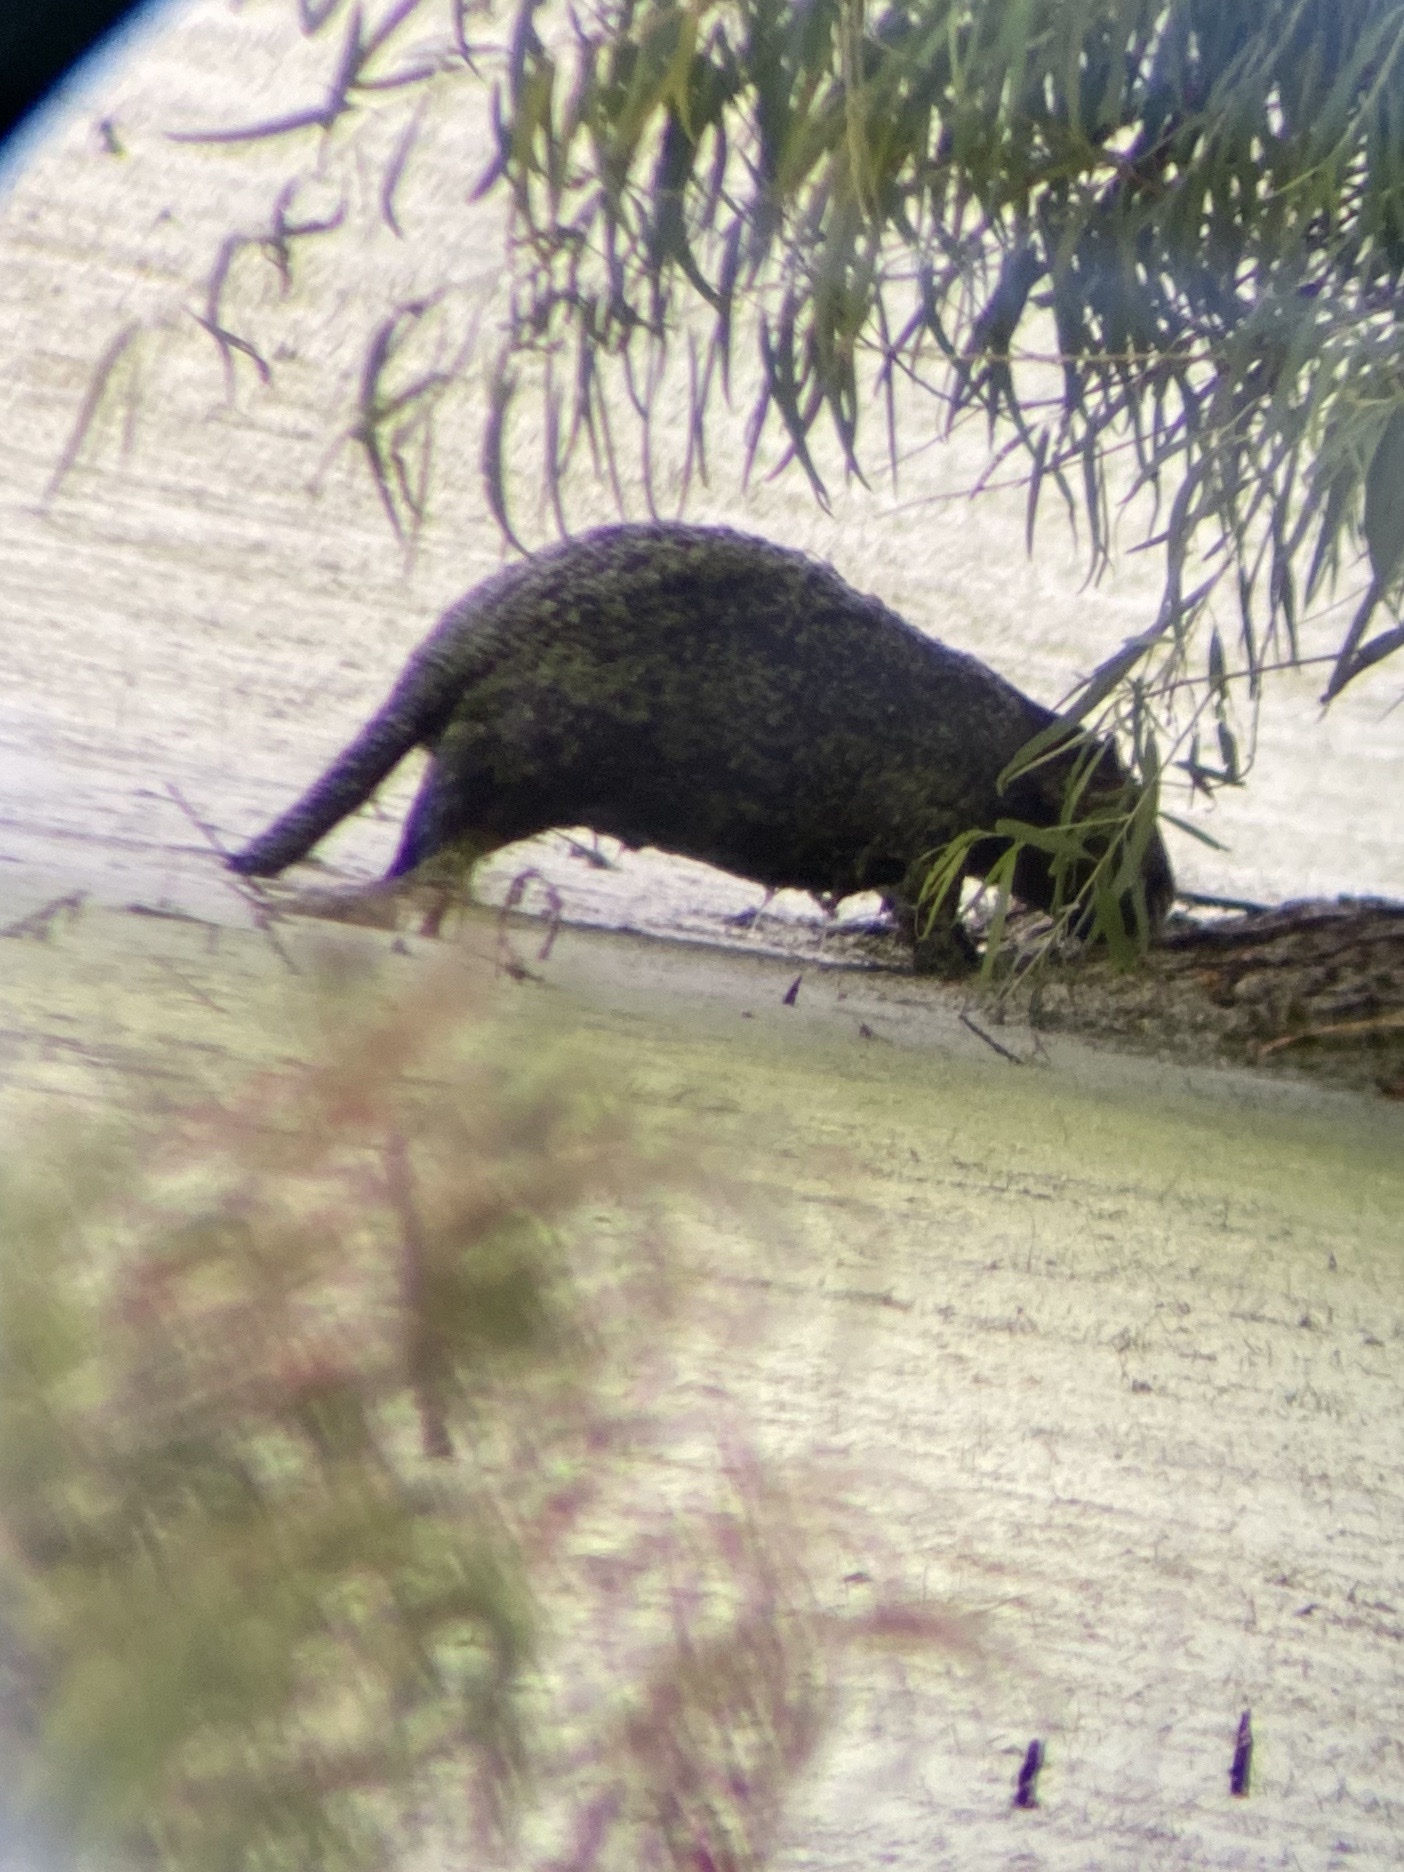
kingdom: Animalia
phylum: Chordata
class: Mammalia
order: Rodentia
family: Myocastoridae
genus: Myocastor
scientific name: Myocastor coypus
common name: Coypu
